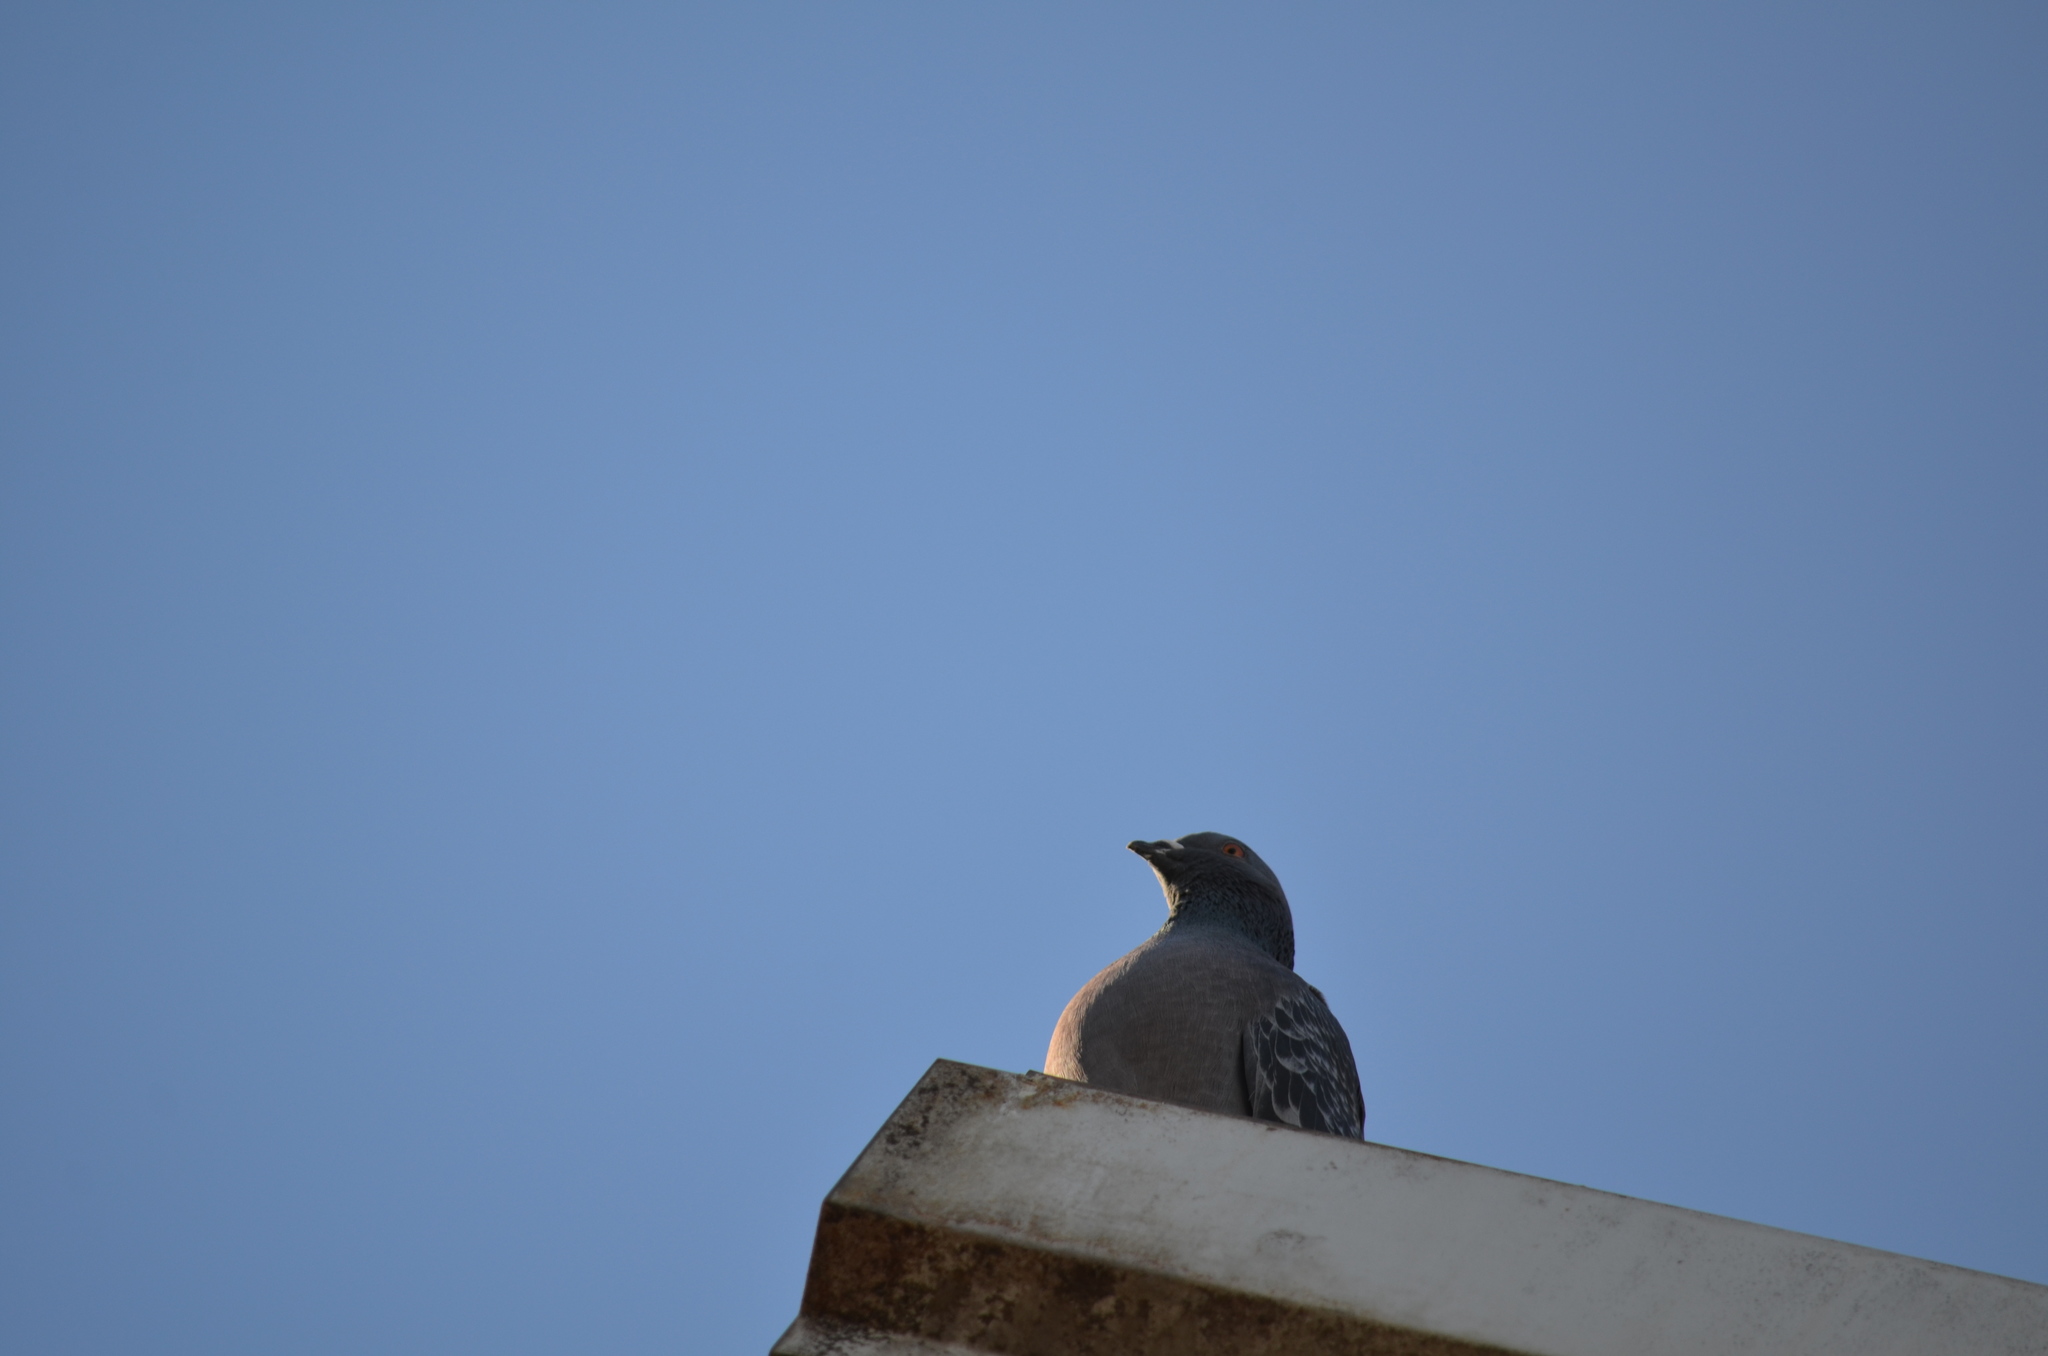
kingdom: Animalia
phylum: Chordata
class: Aves
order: Columbiformes
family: Columbidae
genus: Columba
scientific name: Columba livia
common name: Rock pigeon
